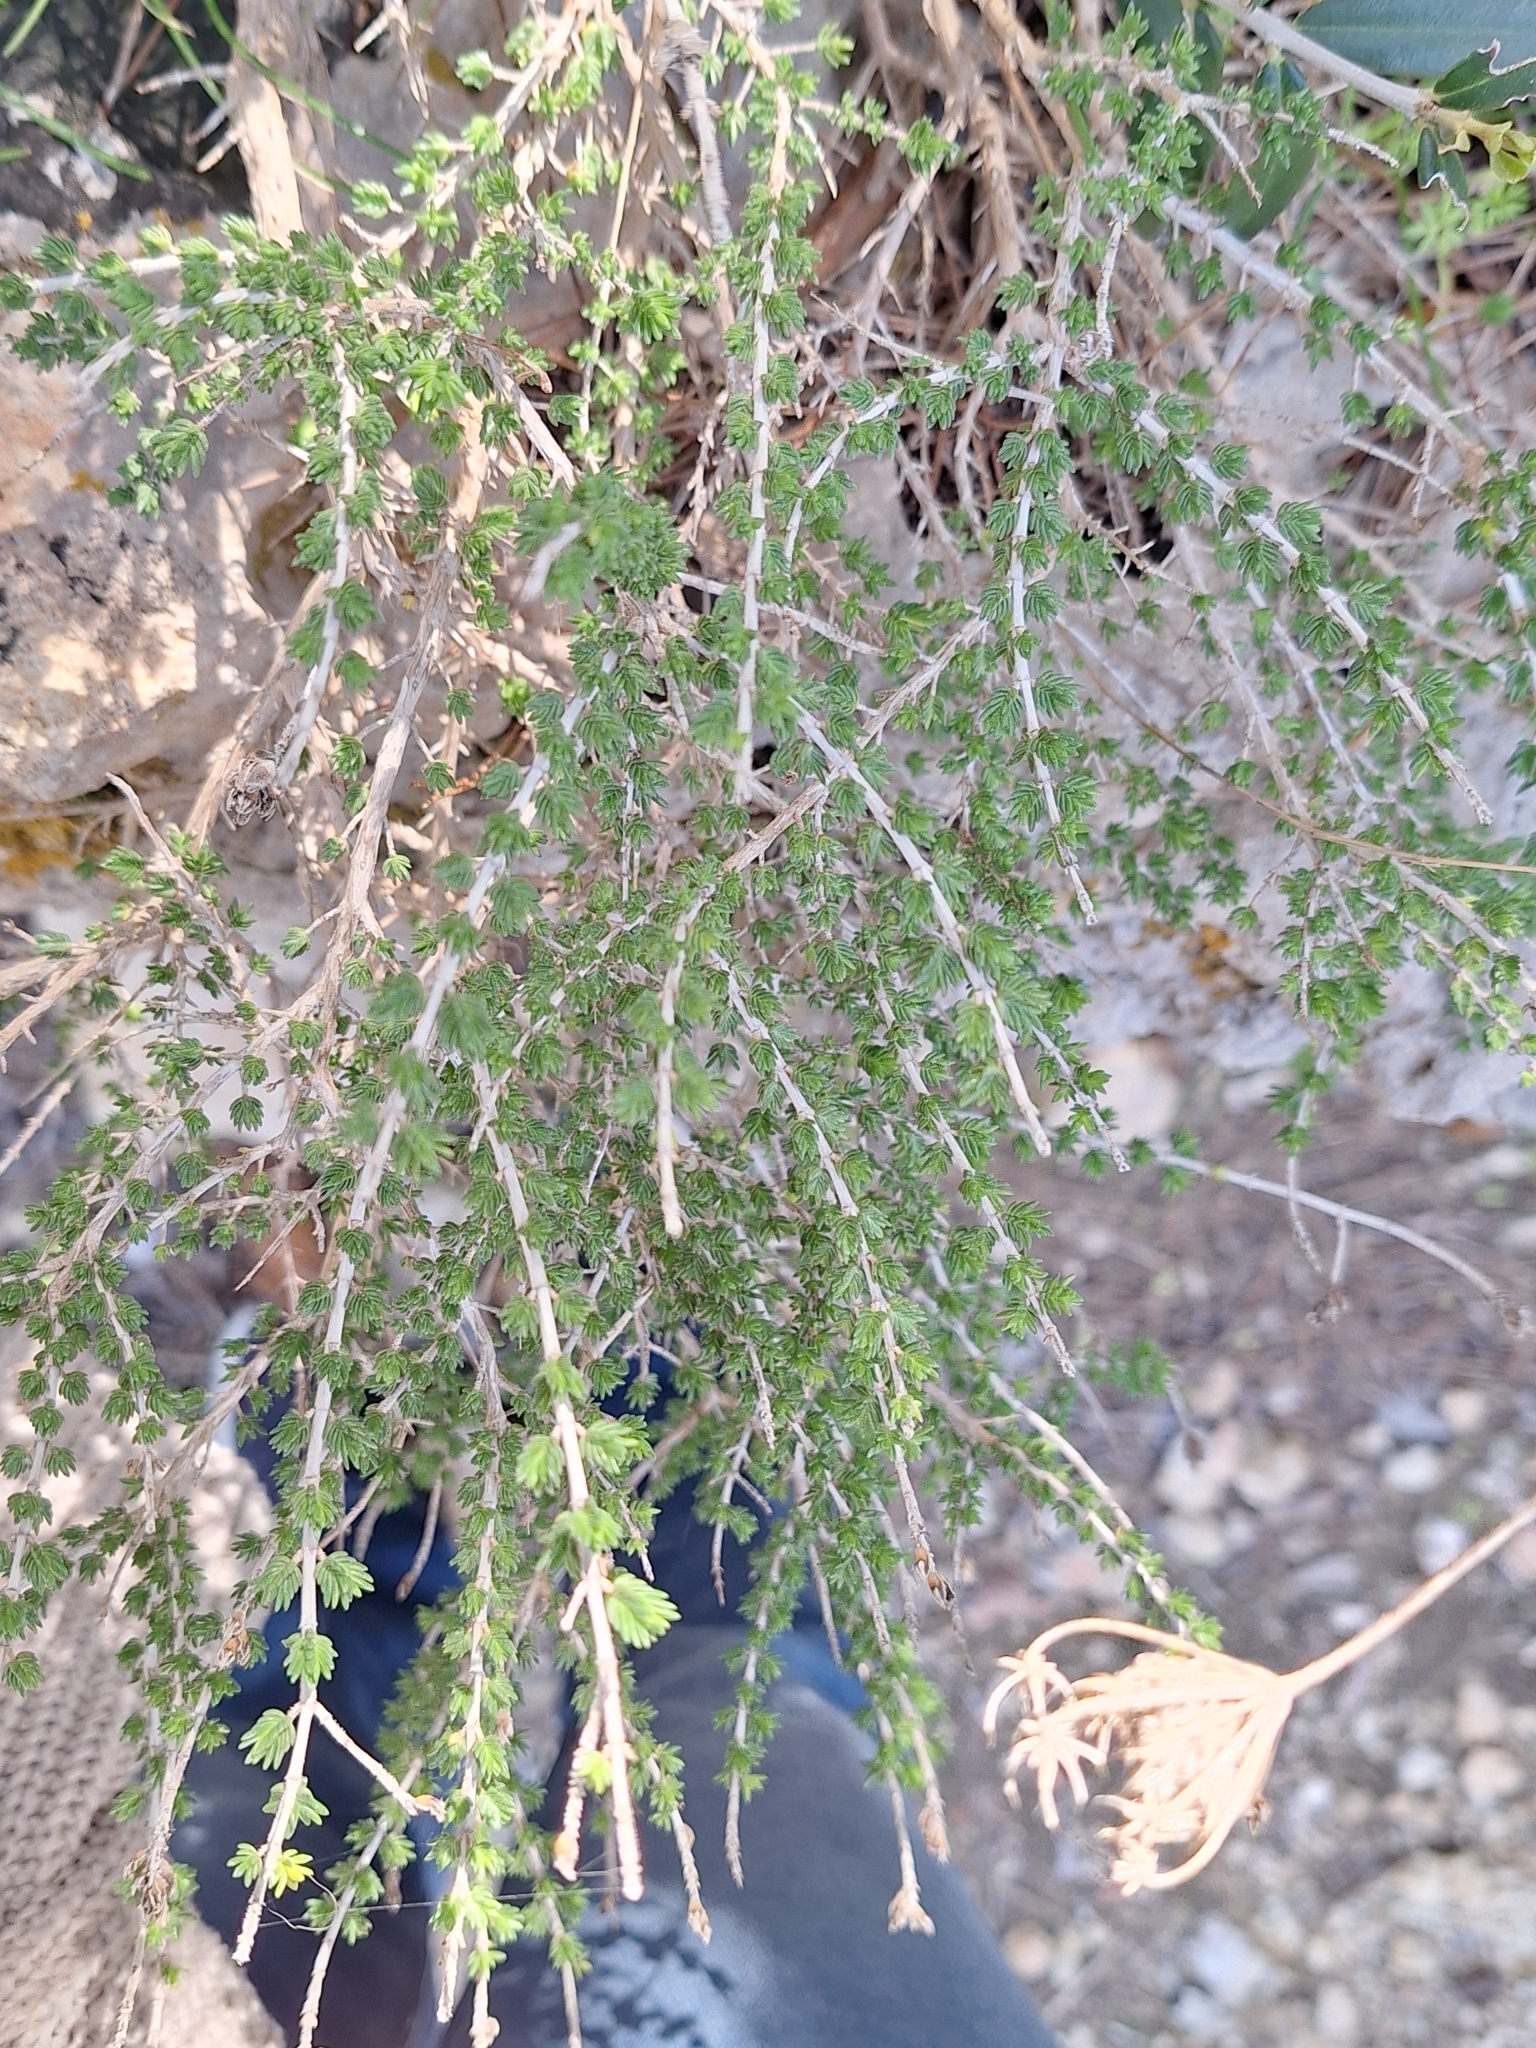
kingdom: Plantae
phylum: Tracheophyta
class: Magnoliopsida
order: Lamiales
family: Lamiaceae
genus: Thymbra
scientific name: Thymbra capitata
